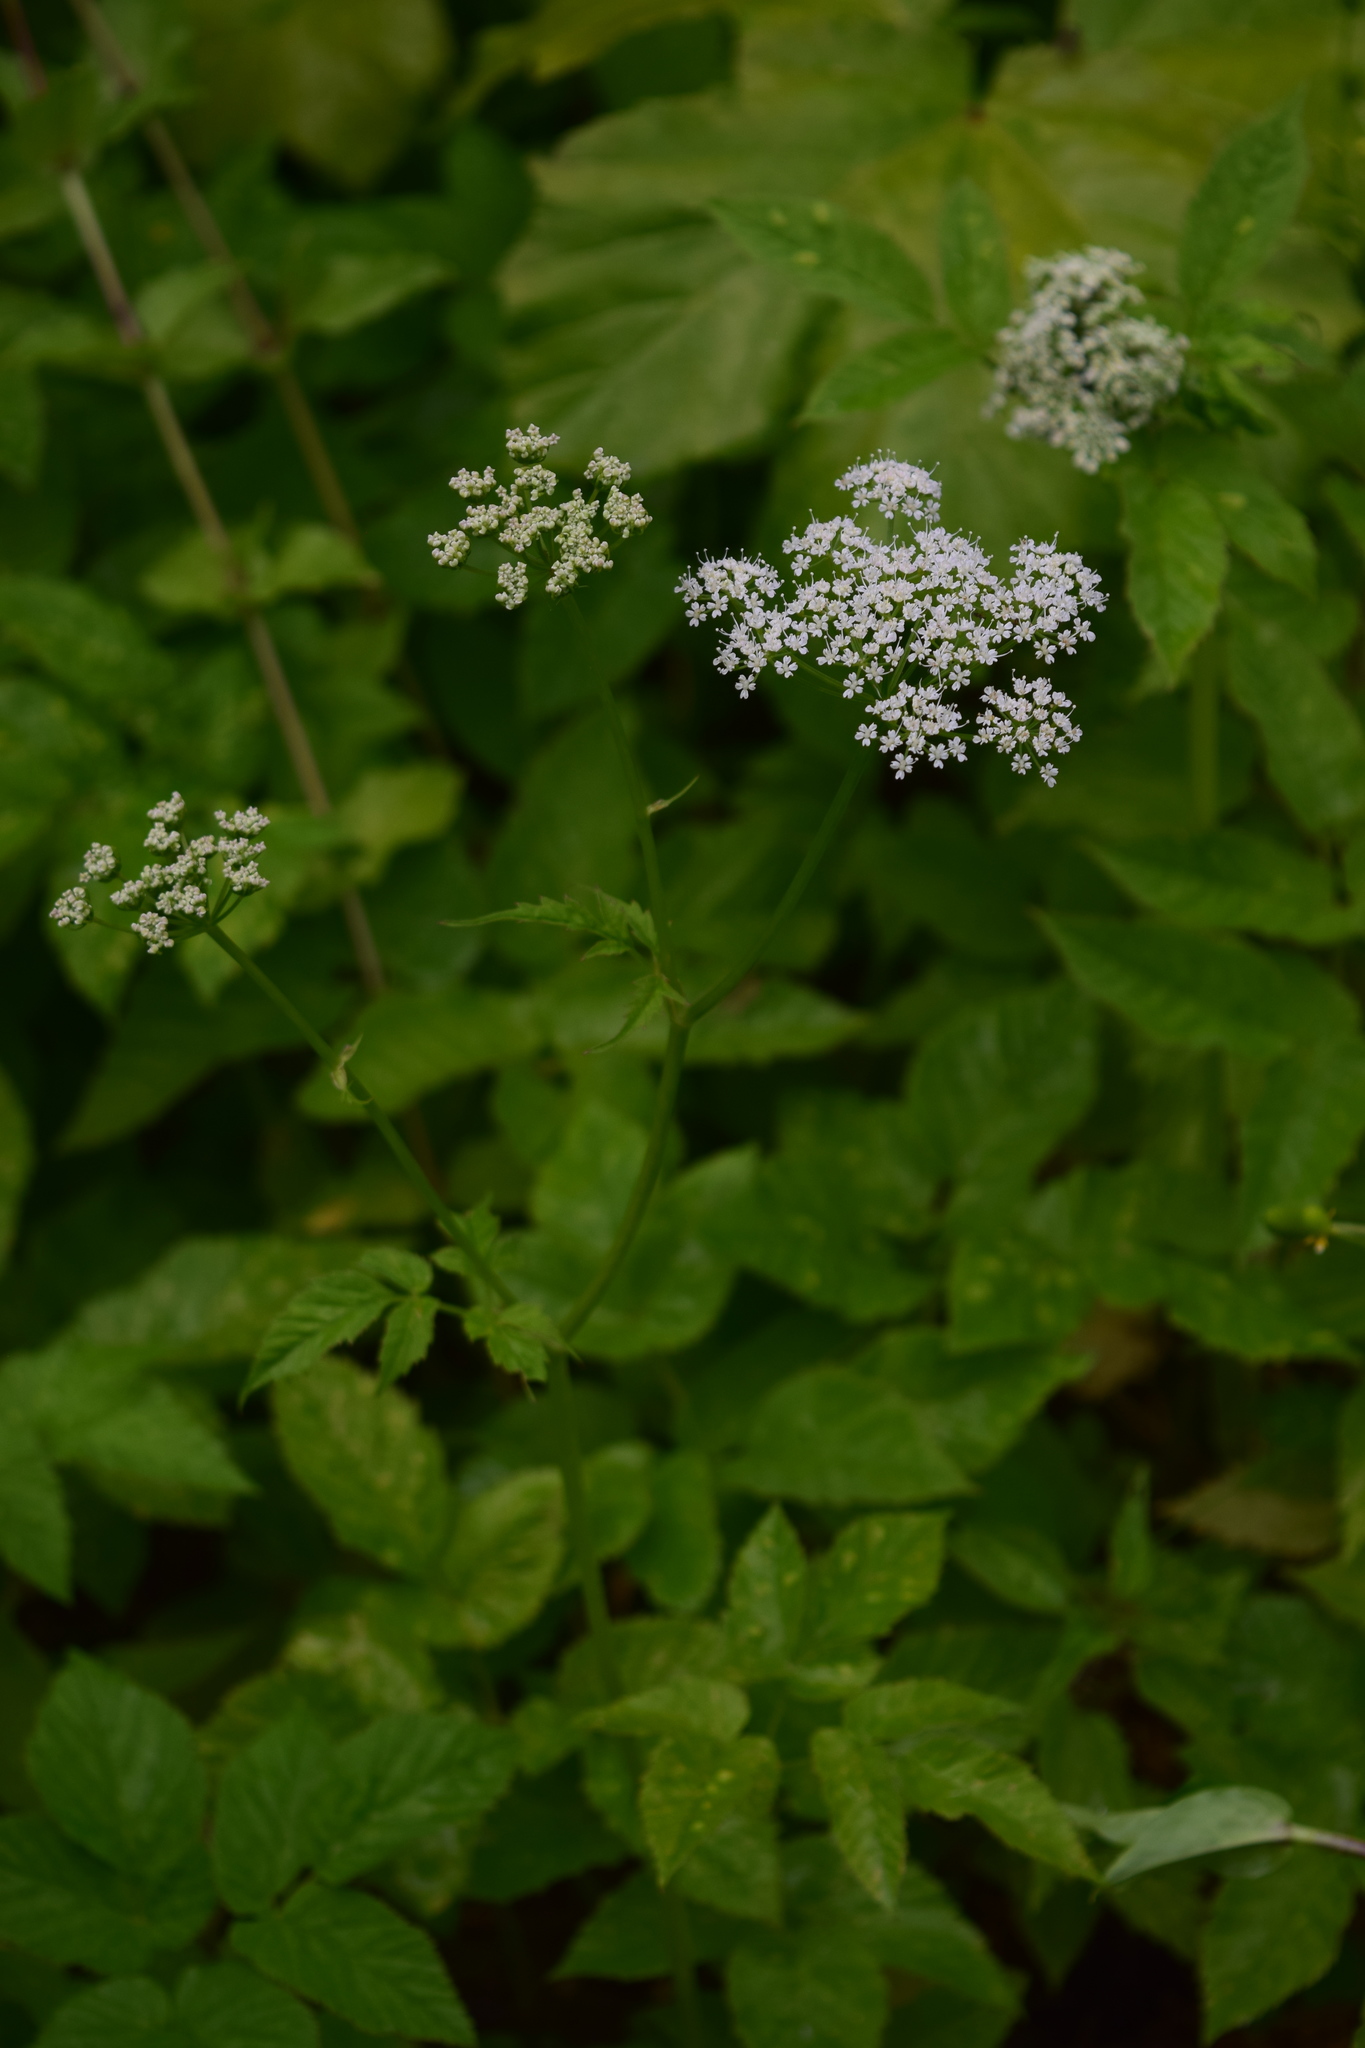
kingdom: Plantae
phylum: Tracheophyta
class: Magnoliopsida
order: Apiales
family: Apiaceae
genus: Aegopodium
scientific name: Aegopodium podagraria
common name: Ground-elder
